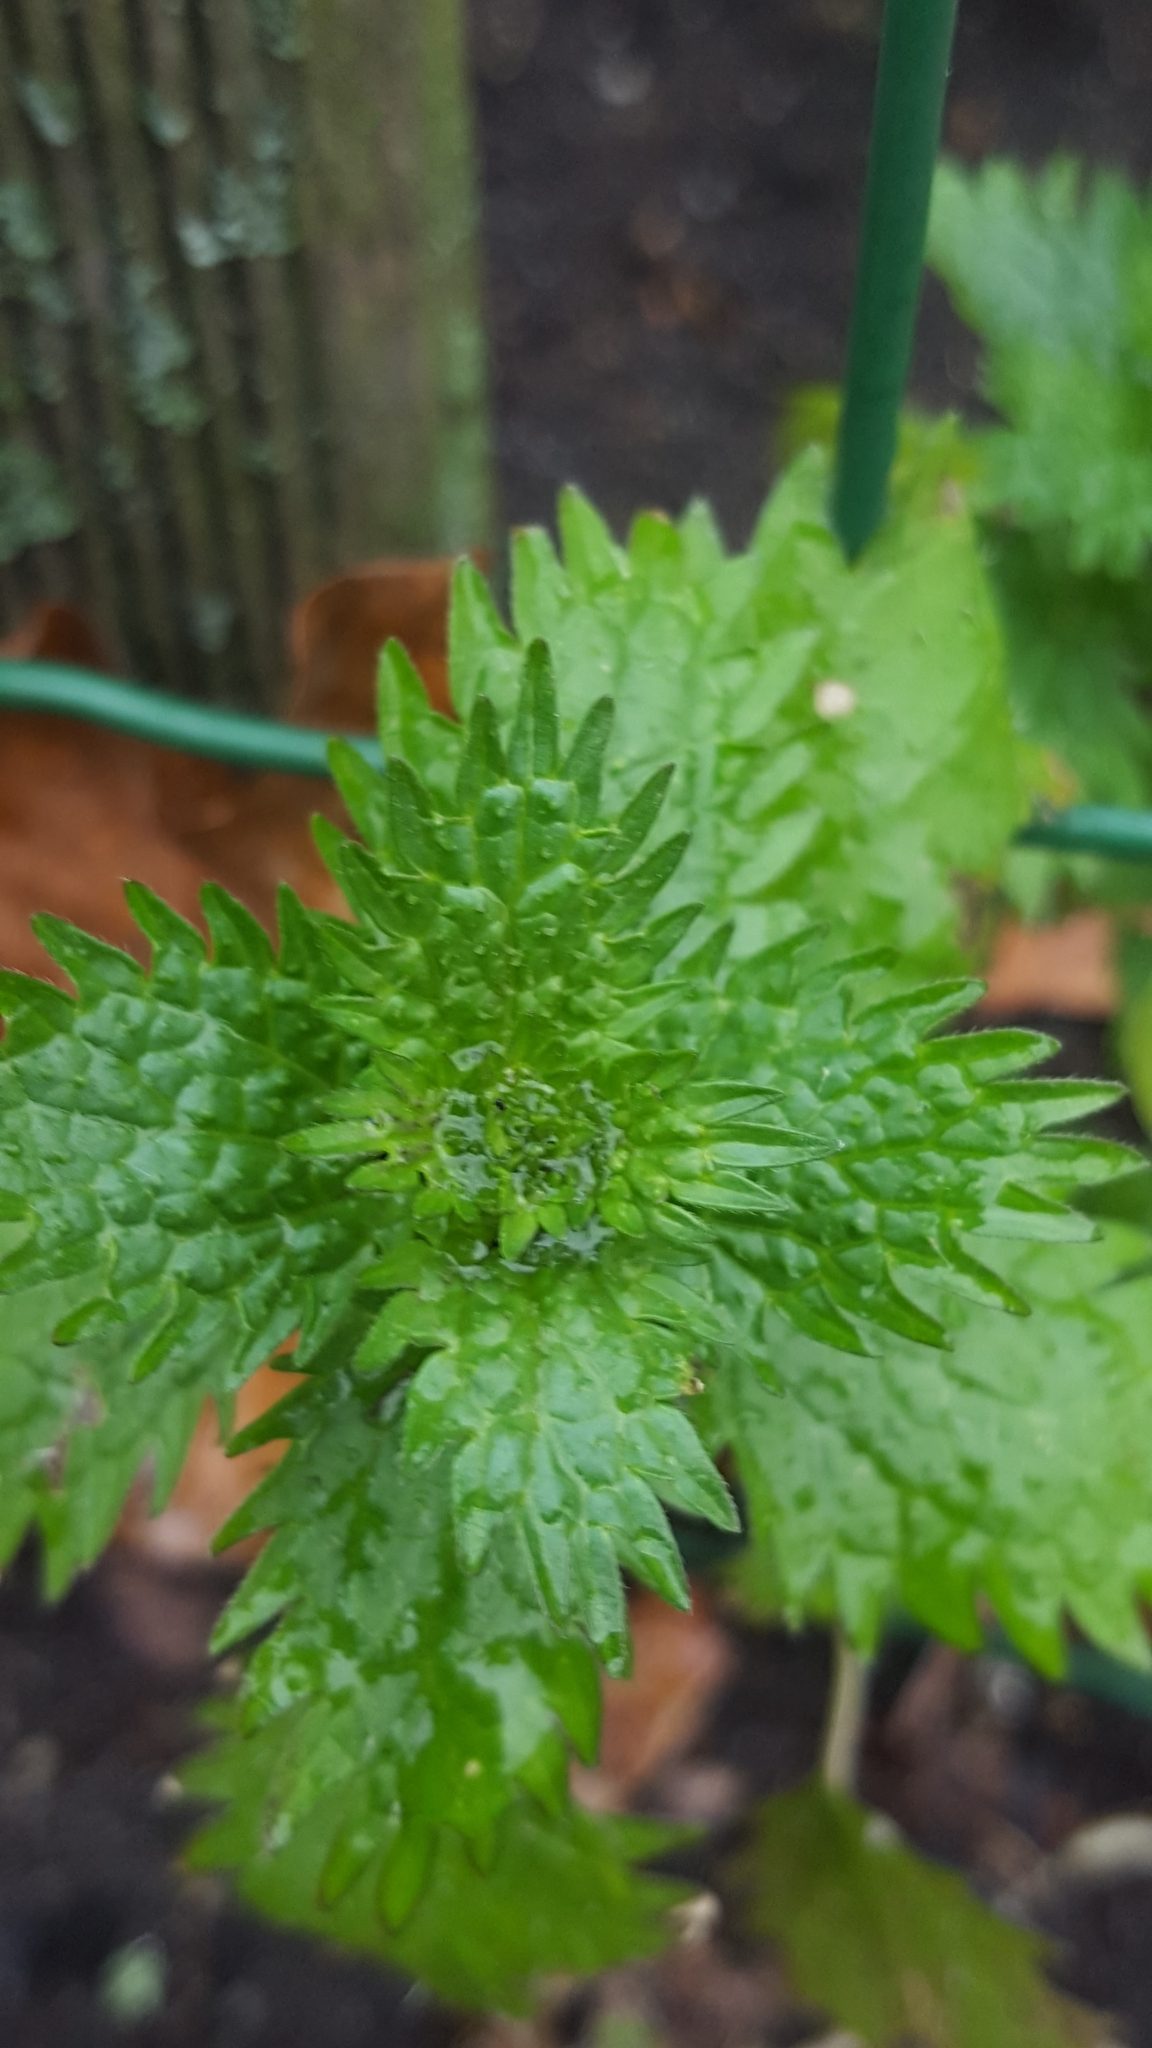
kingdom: Plantae
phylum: Tracheophyta
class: Magnoliopsida
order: Rosales
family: Urticaceae
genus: Urtica
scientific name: Urtica urens
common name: Dwarf nettle
